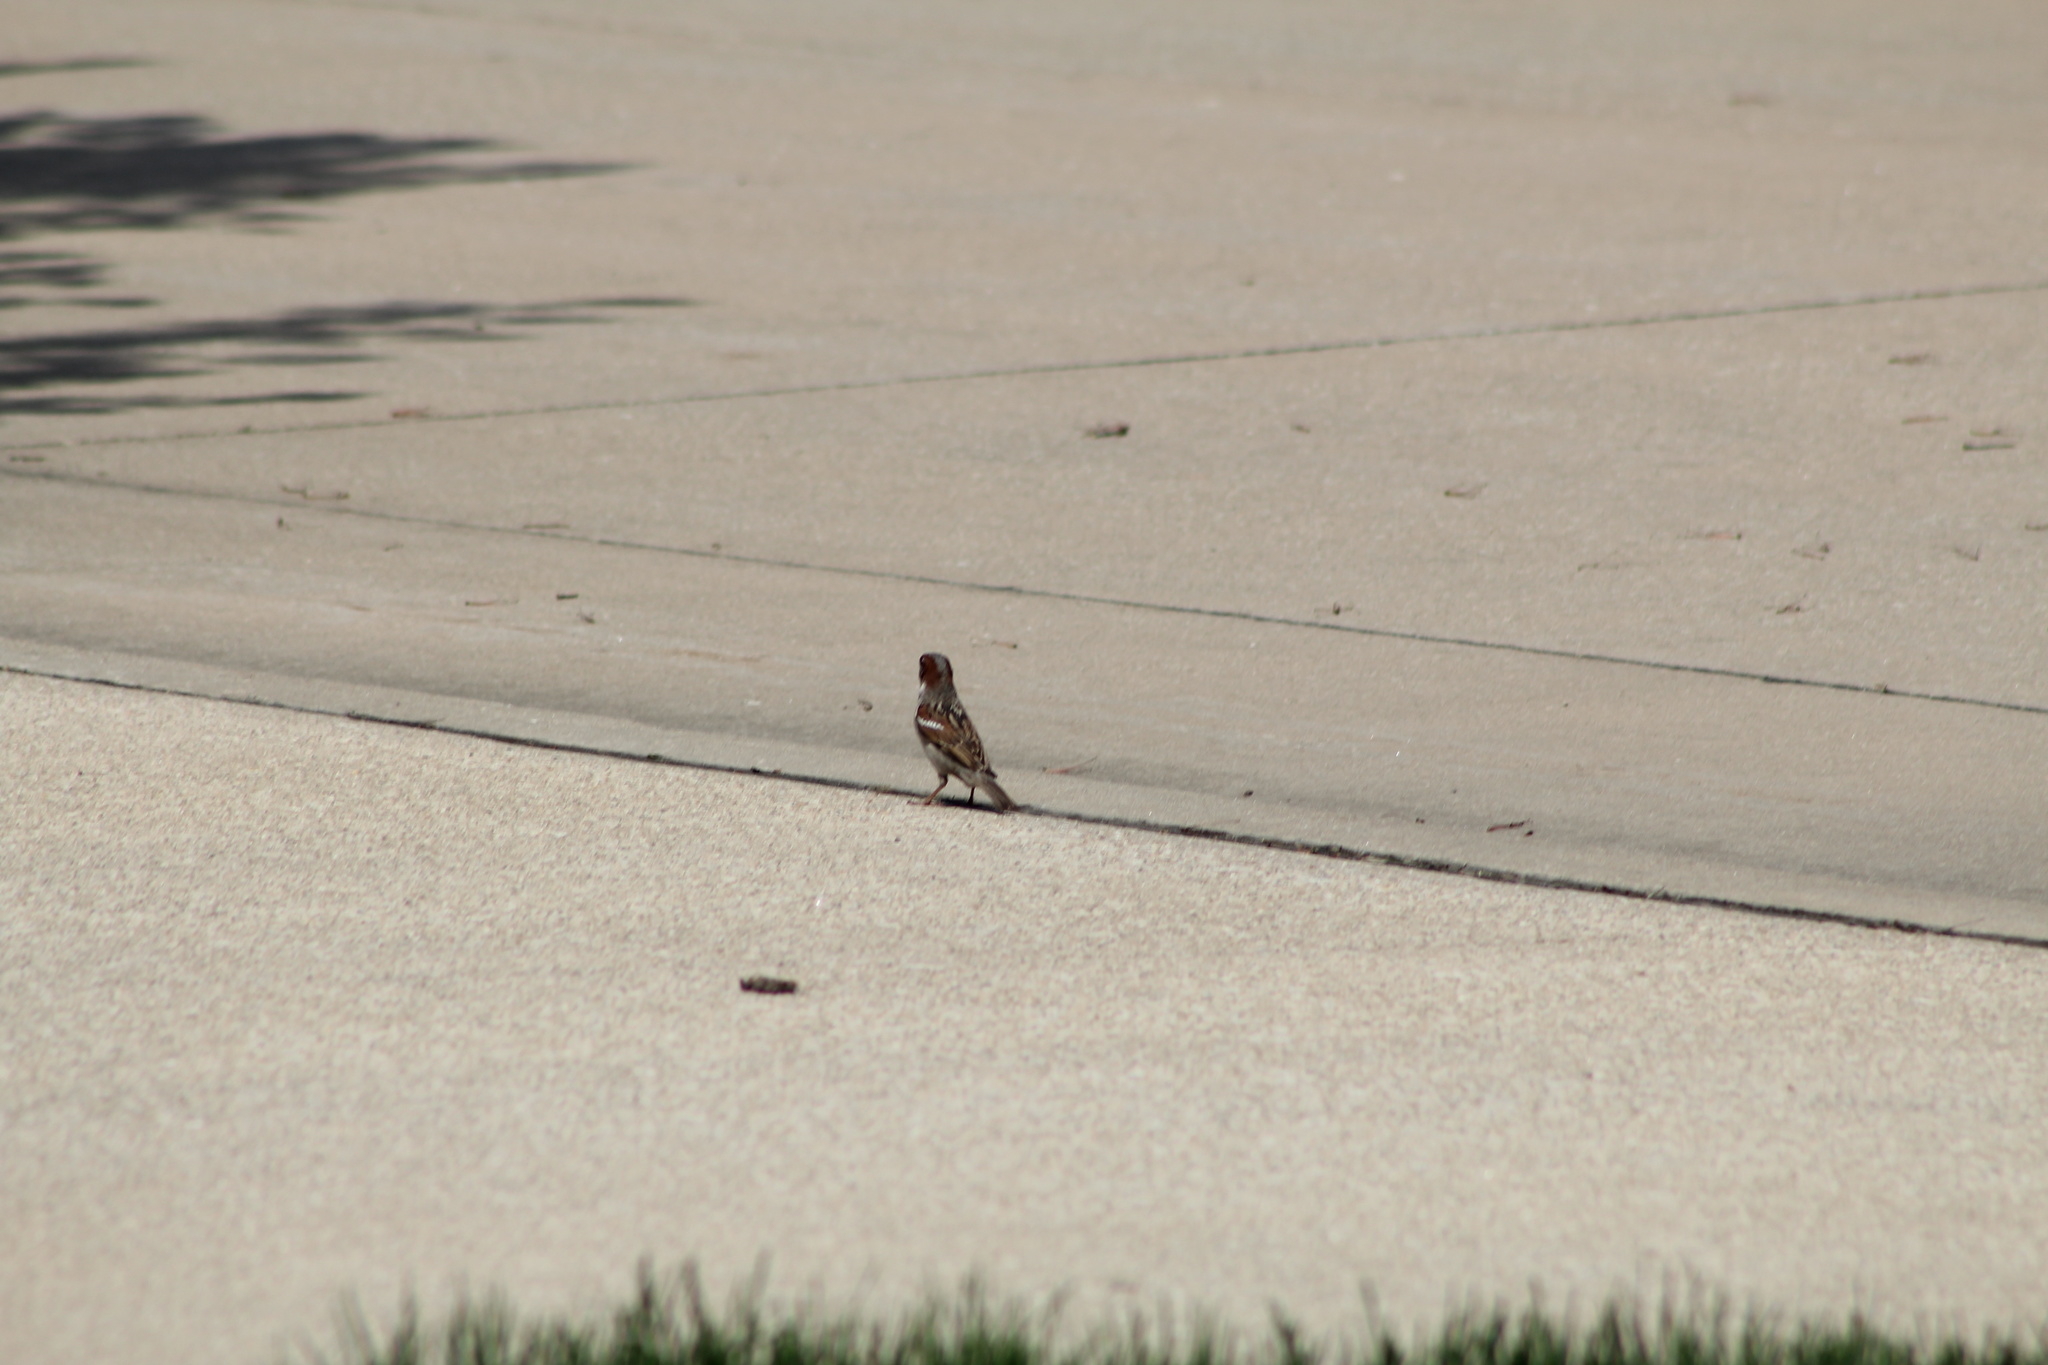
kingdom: Animalia
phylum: Chordata
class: Aves
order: Passeriformes
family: Passeridae
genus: Passer
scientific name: Passer domesticus
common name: House sparrow
